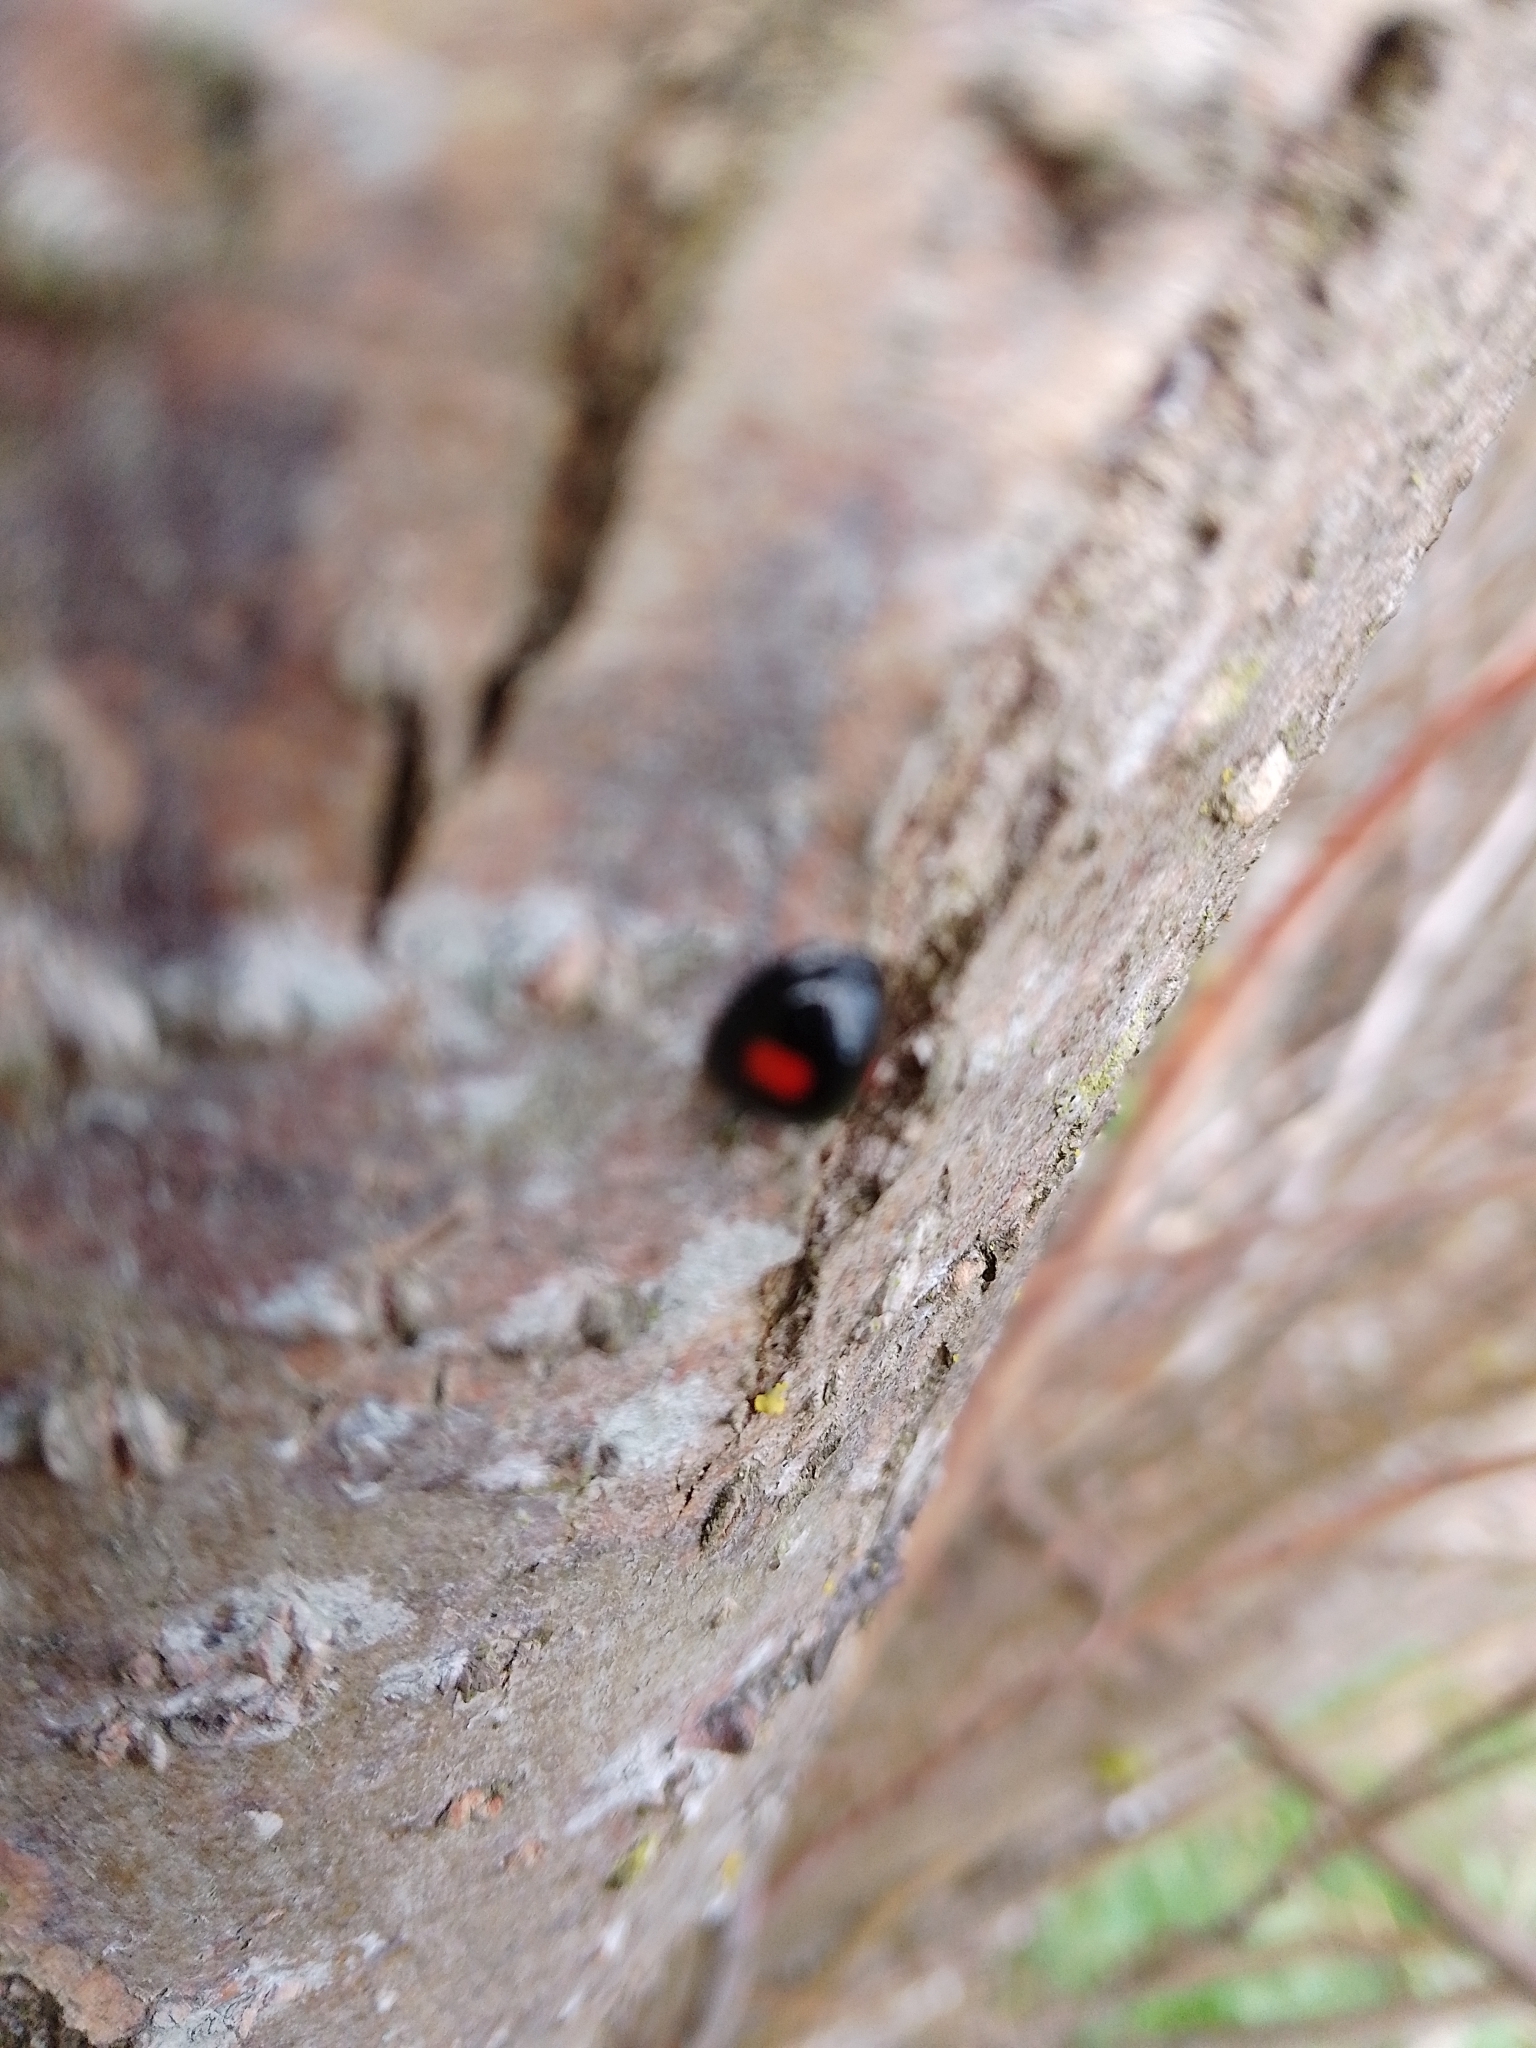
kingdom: Animalia
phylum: Arthropoda
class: Insecta
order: Coleoptera
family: Coccinellidae
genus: Chilocorus
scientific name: Chilocorus renipustulatus
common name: Kidney-spot ladybird
